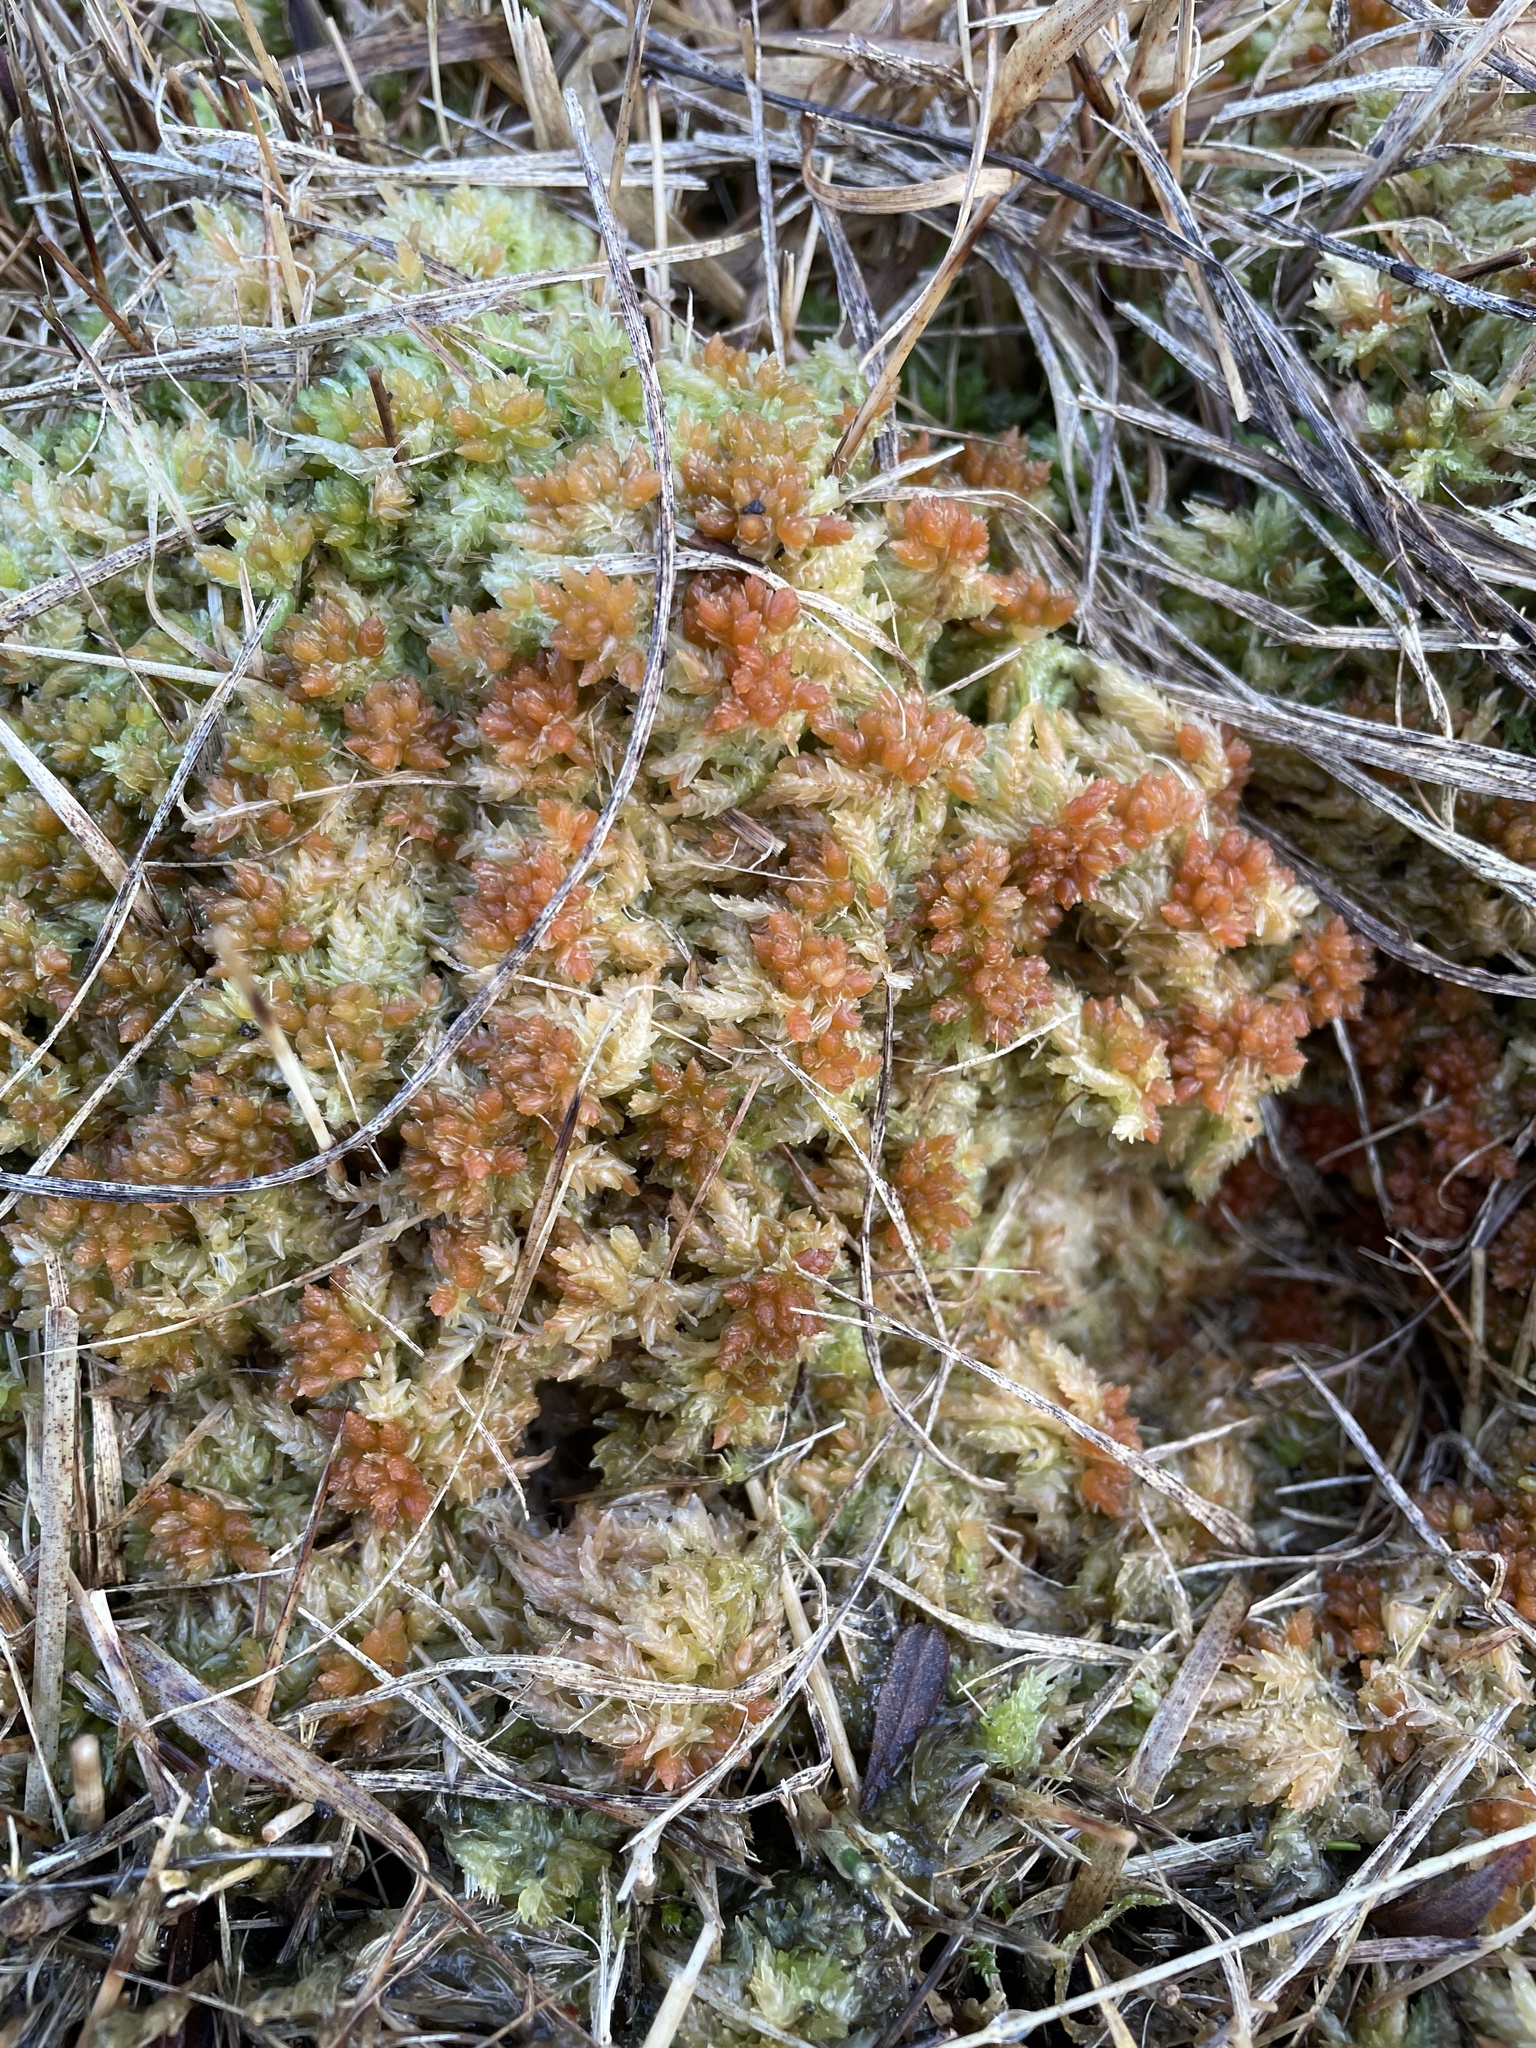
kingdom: Plantae
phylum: Bryophyta
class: Sphagnopsida
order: Sphagnales
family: Sphagnaceae
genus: Sphagnum
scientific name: Sphagnum palustre
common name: Blunt-leaved bog-moss
